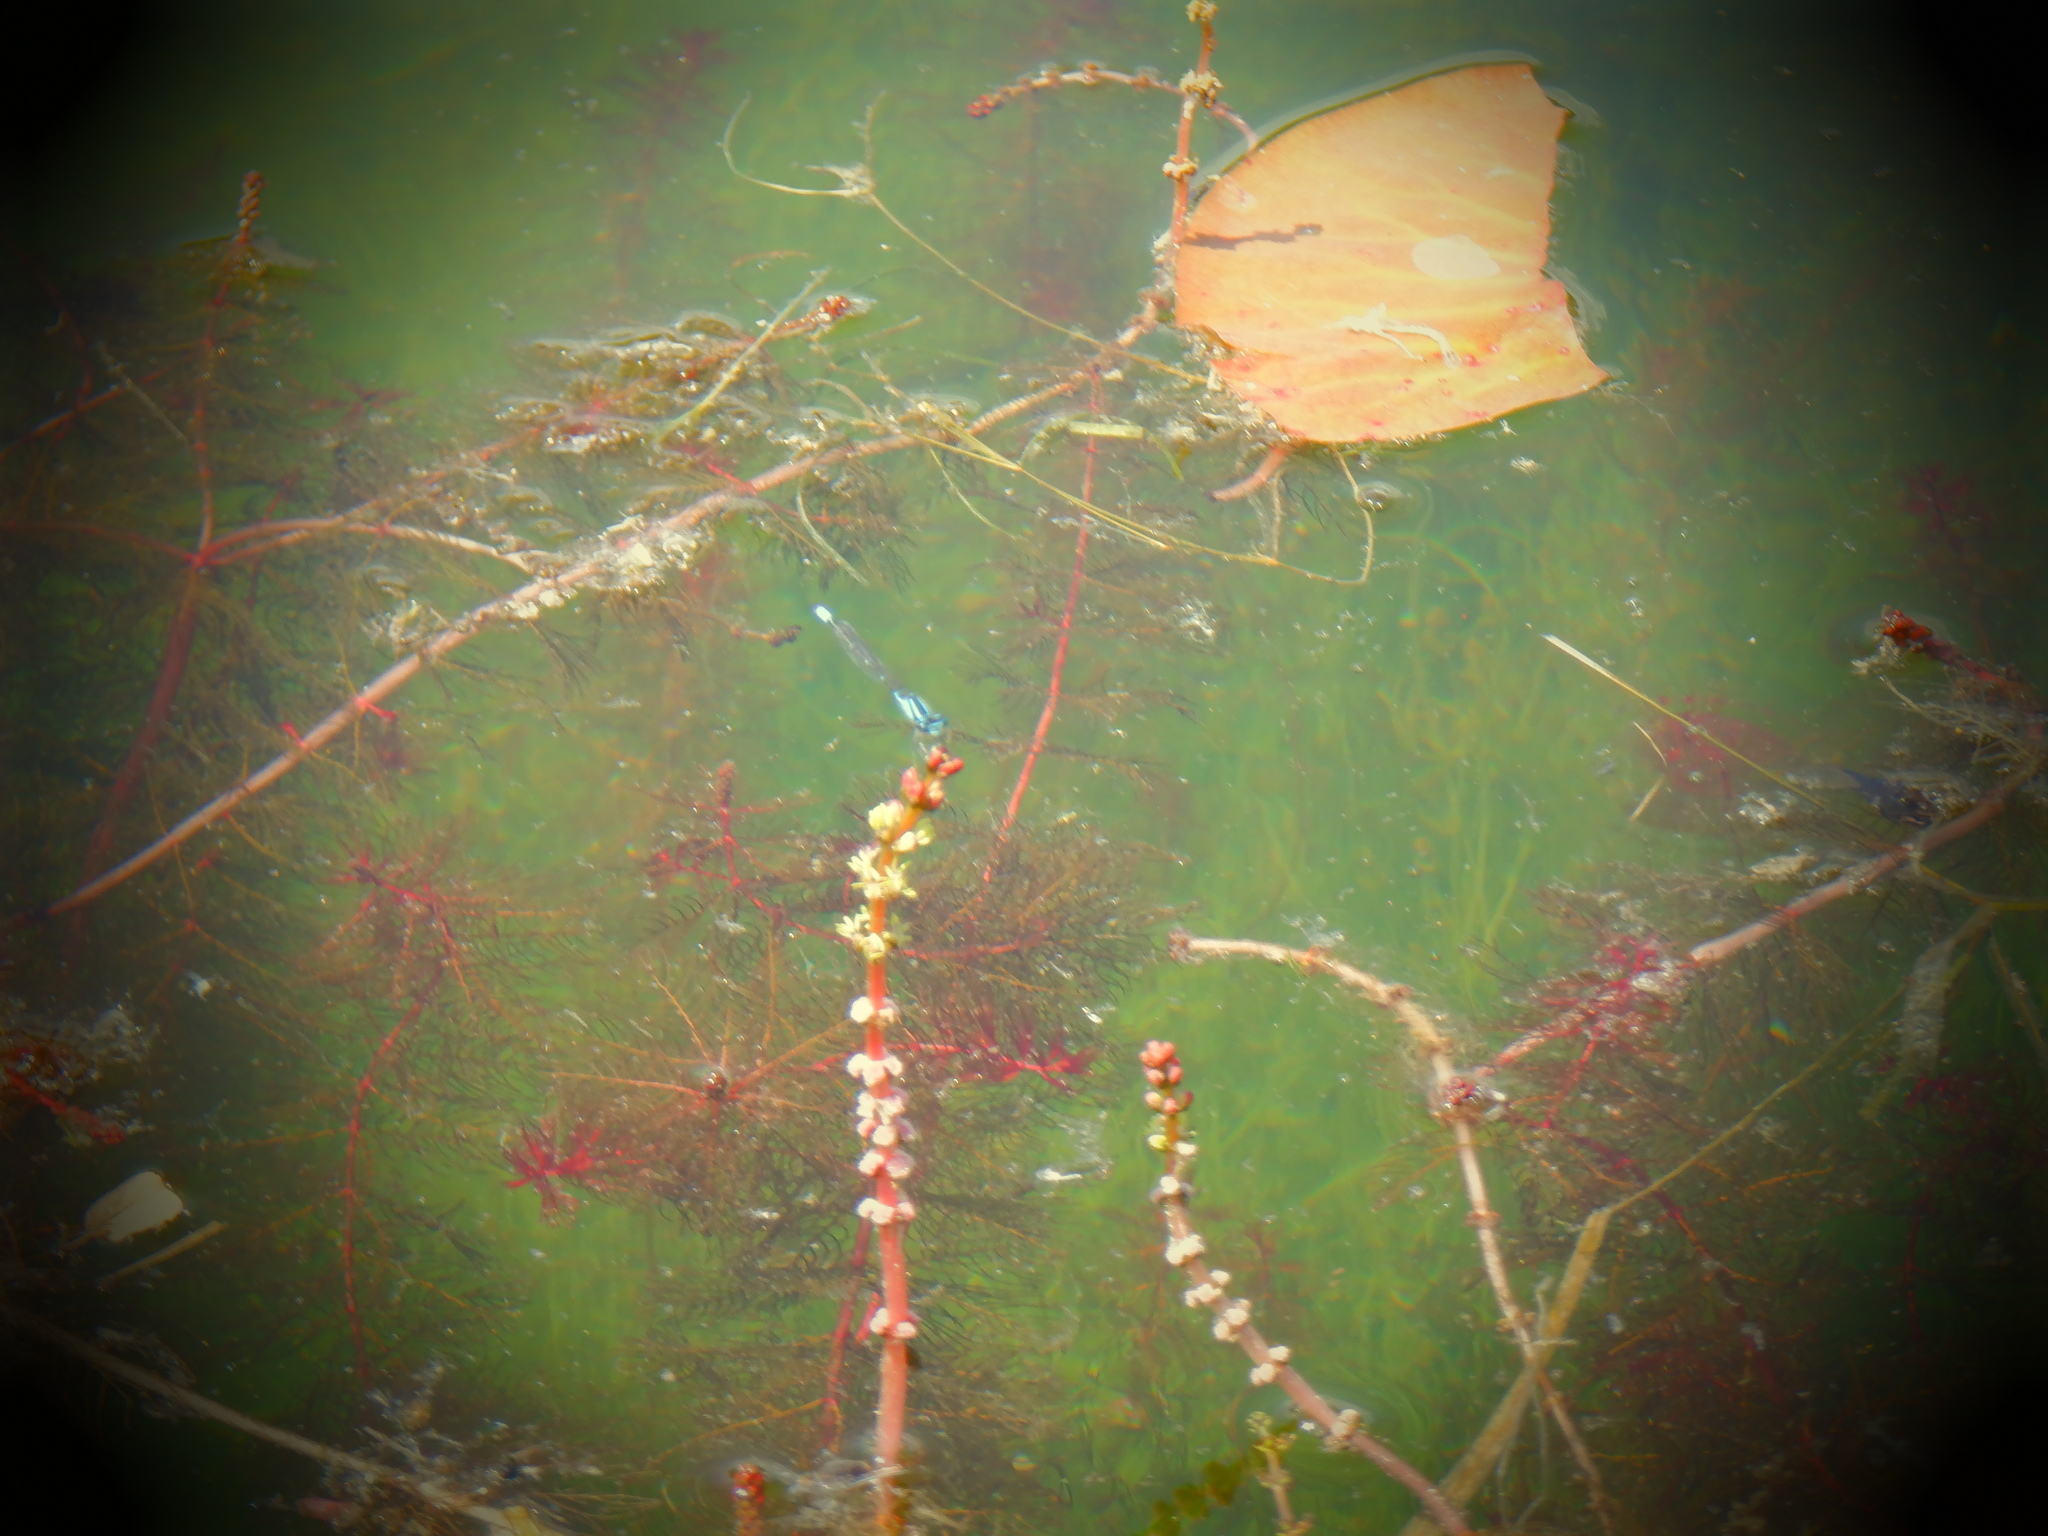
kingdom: Animalia
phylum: Arthropoda
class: Insecta
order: Odonata
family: Coenagrionidae
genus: Enallagma
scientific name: Enallagma geminatum
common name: Skimming bluet
